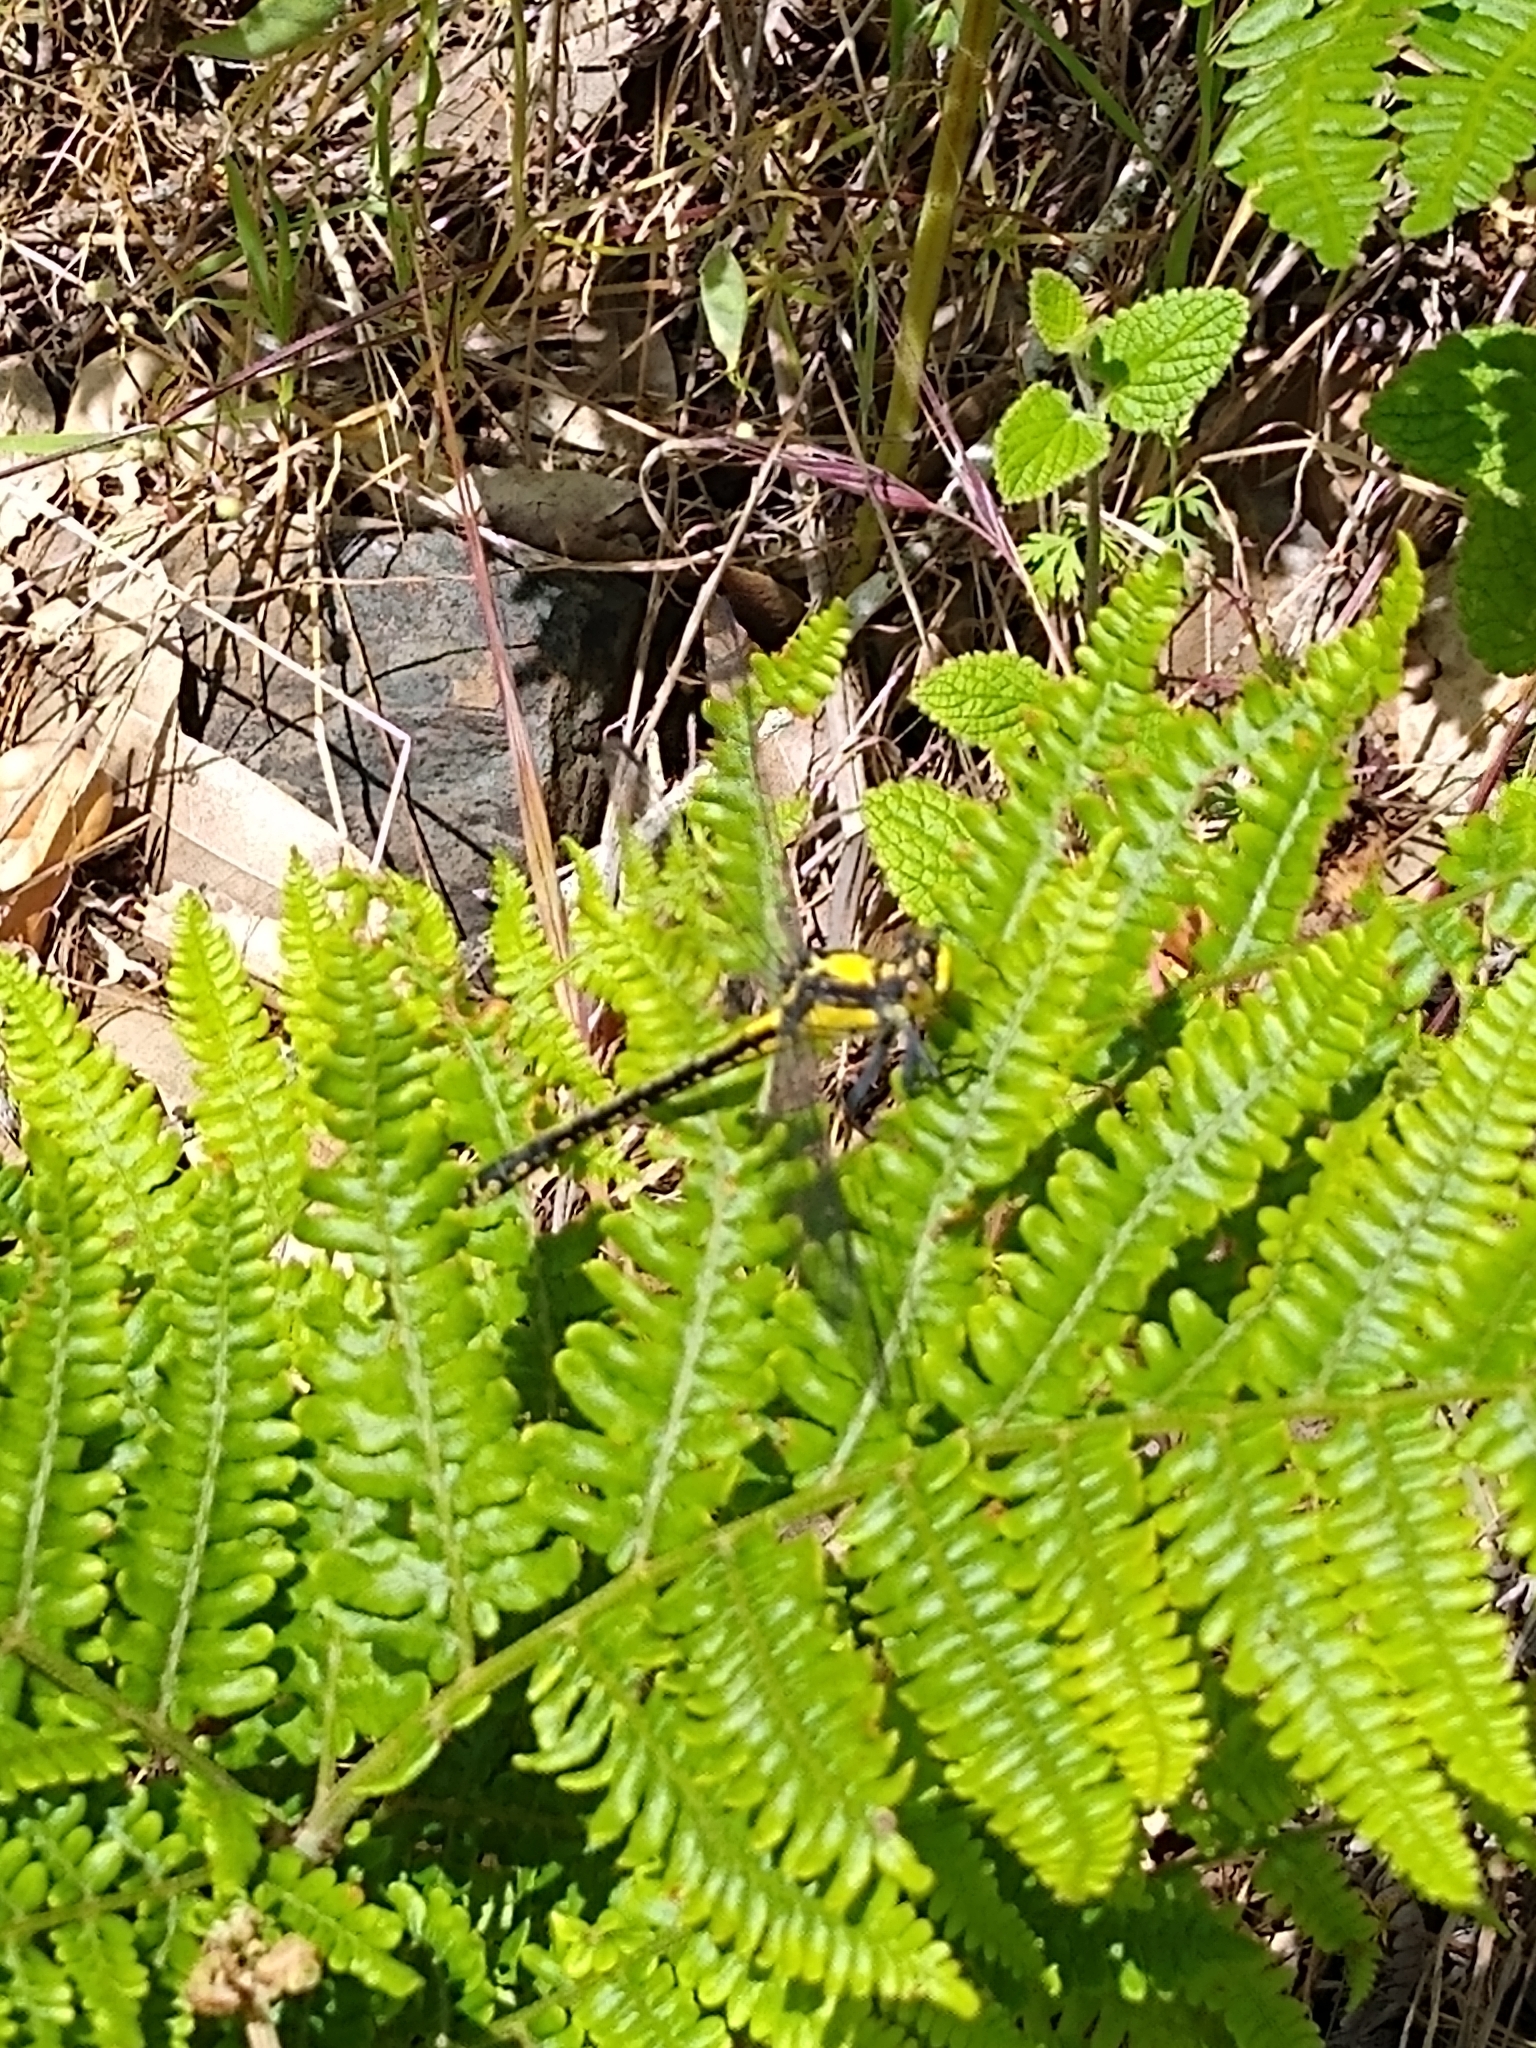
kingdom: Animalia
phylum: Arthropoda
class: Insecta
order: Odonata
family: Gomphidae
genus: Octogomphus
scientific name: Octogomphus specularis
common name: Grappletail
